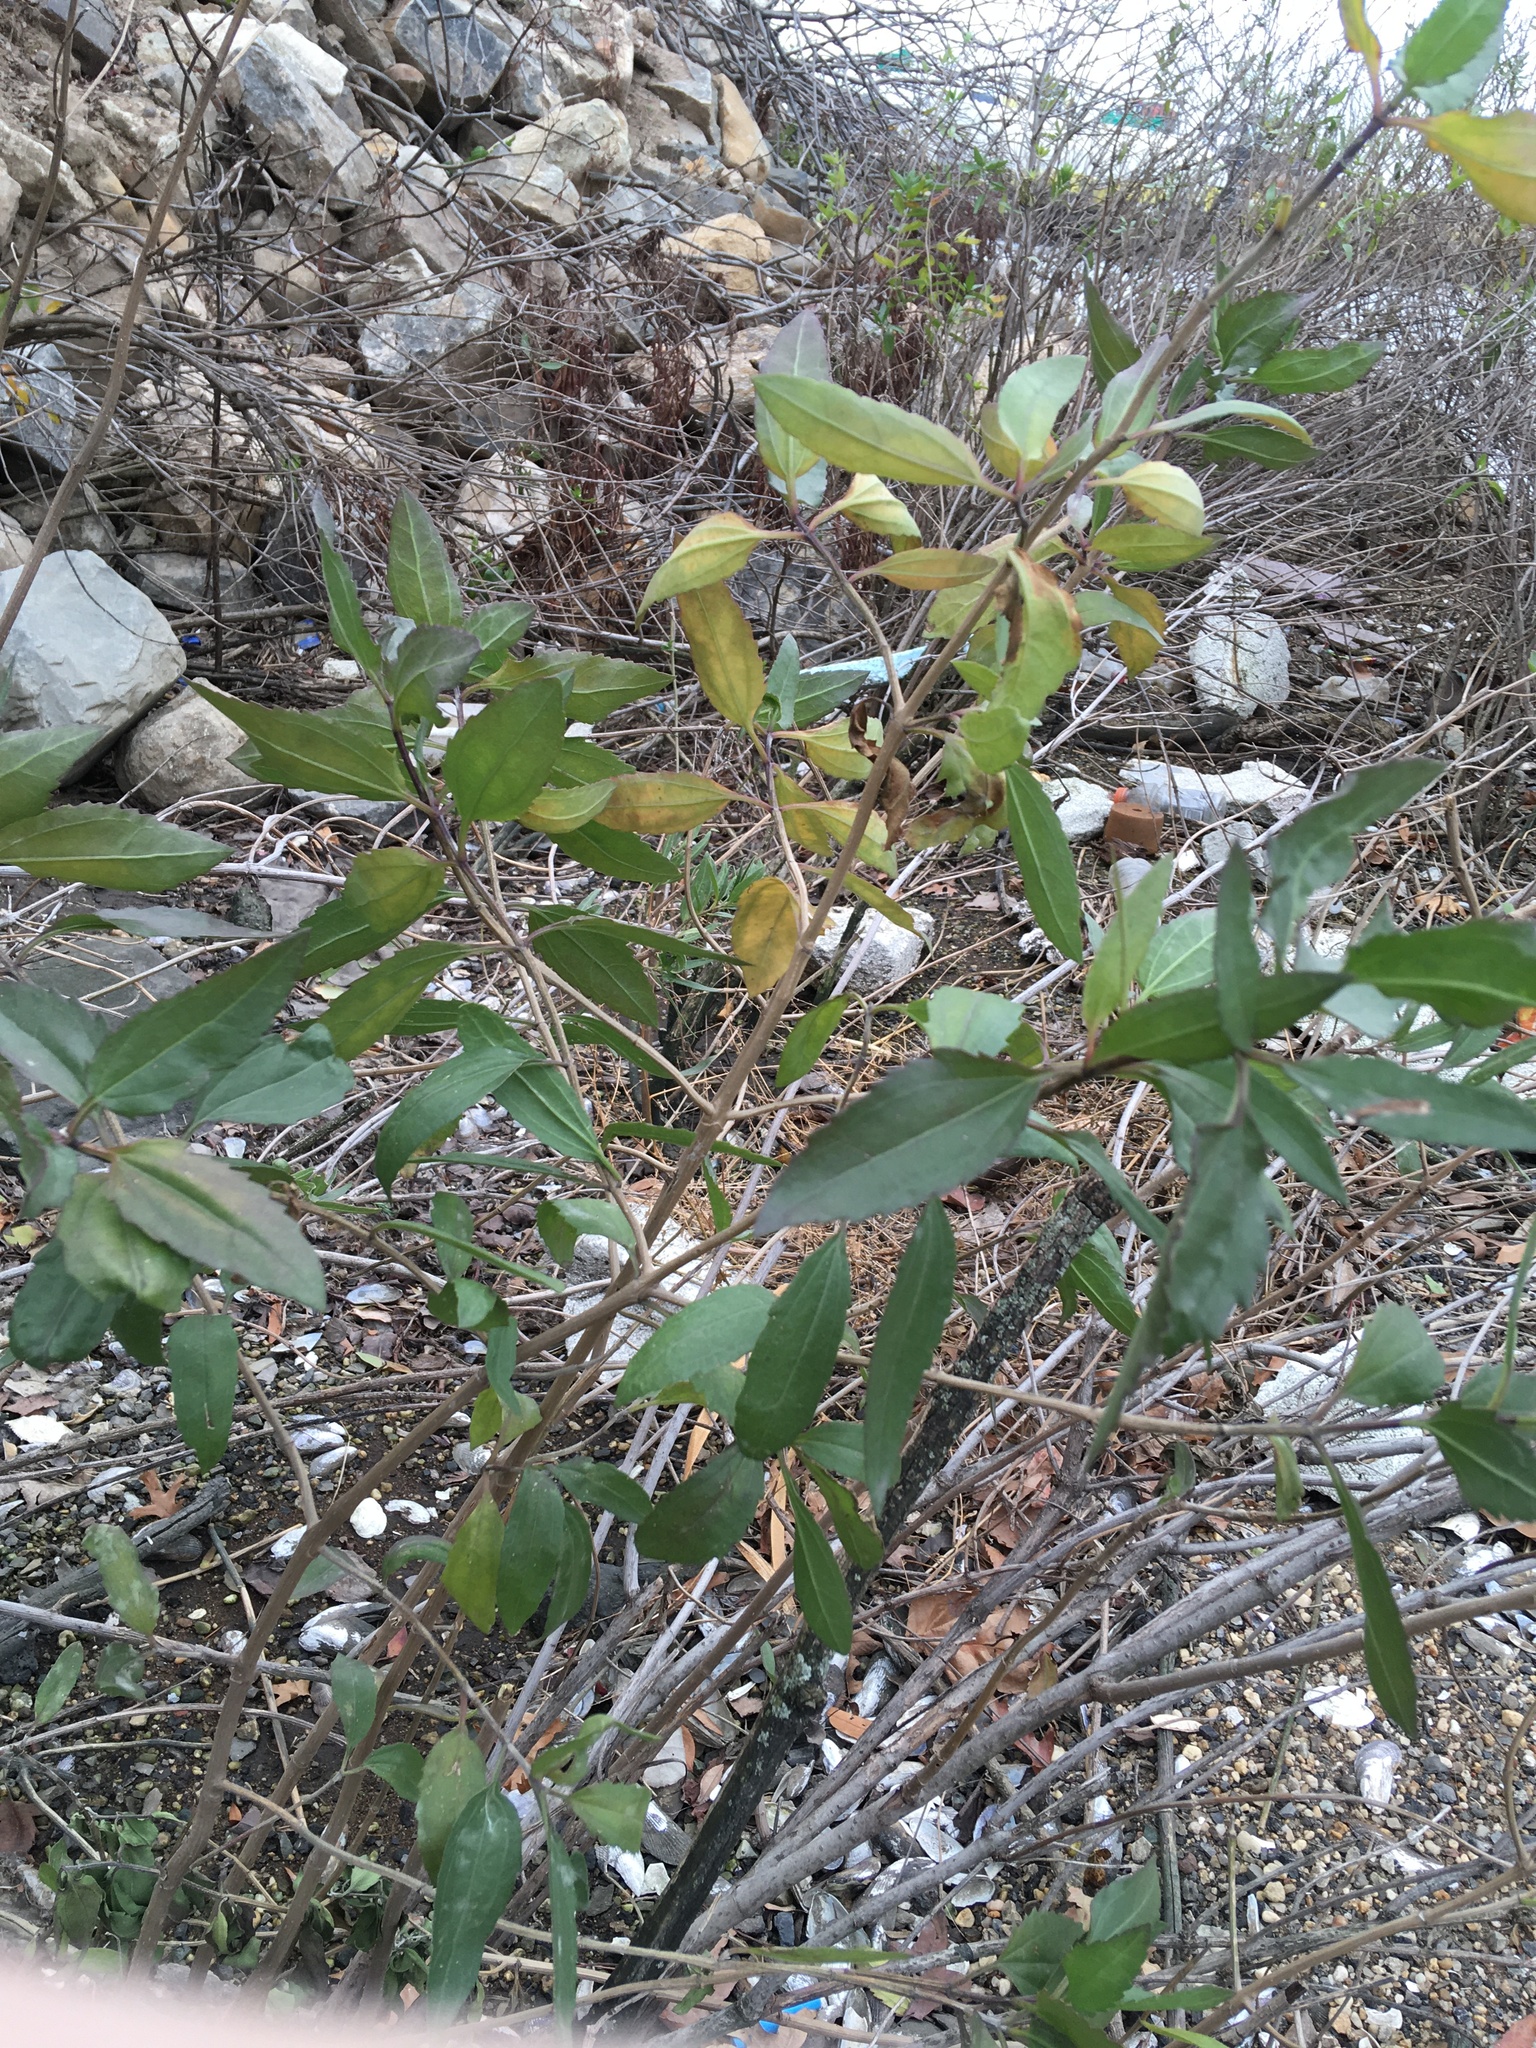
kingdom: Plantae
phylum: Tracheophyta
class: Magnoliopsida
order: Asterales
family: Asteraceae
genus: Iva
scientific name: Iva frutescens
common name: Big-leaved marsh-elder
